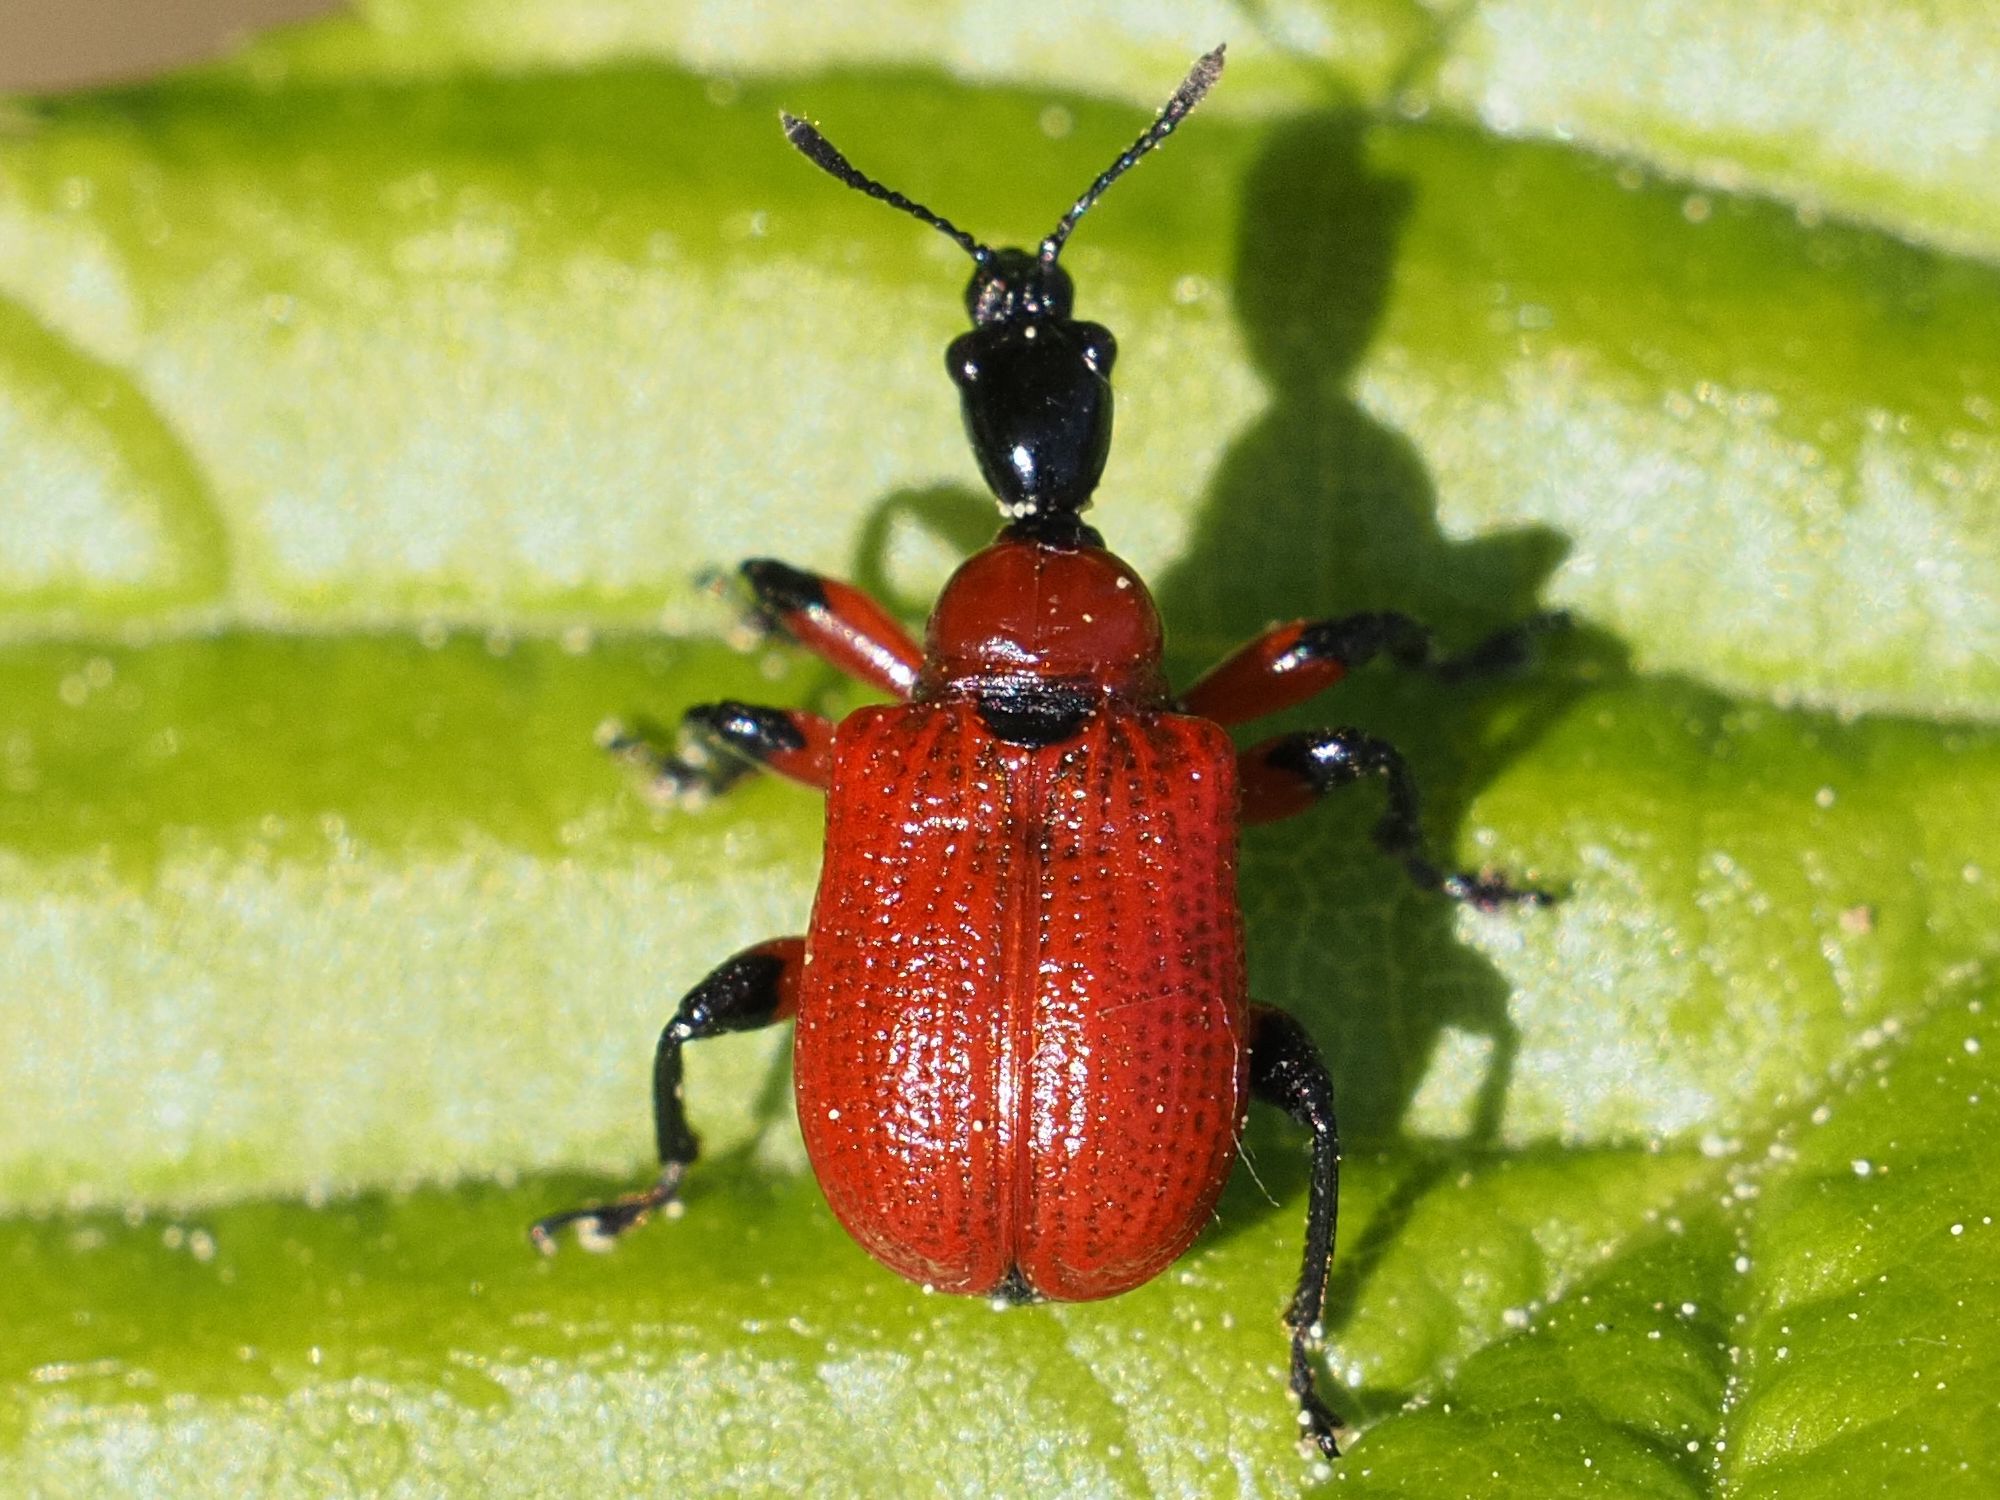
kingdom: Animalia
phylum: Arthropoda
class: Insecta
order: Coleoptera
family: Attelabidae
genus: Apoderus
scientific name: Apoderus coryli
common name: Hazel leaf roller
